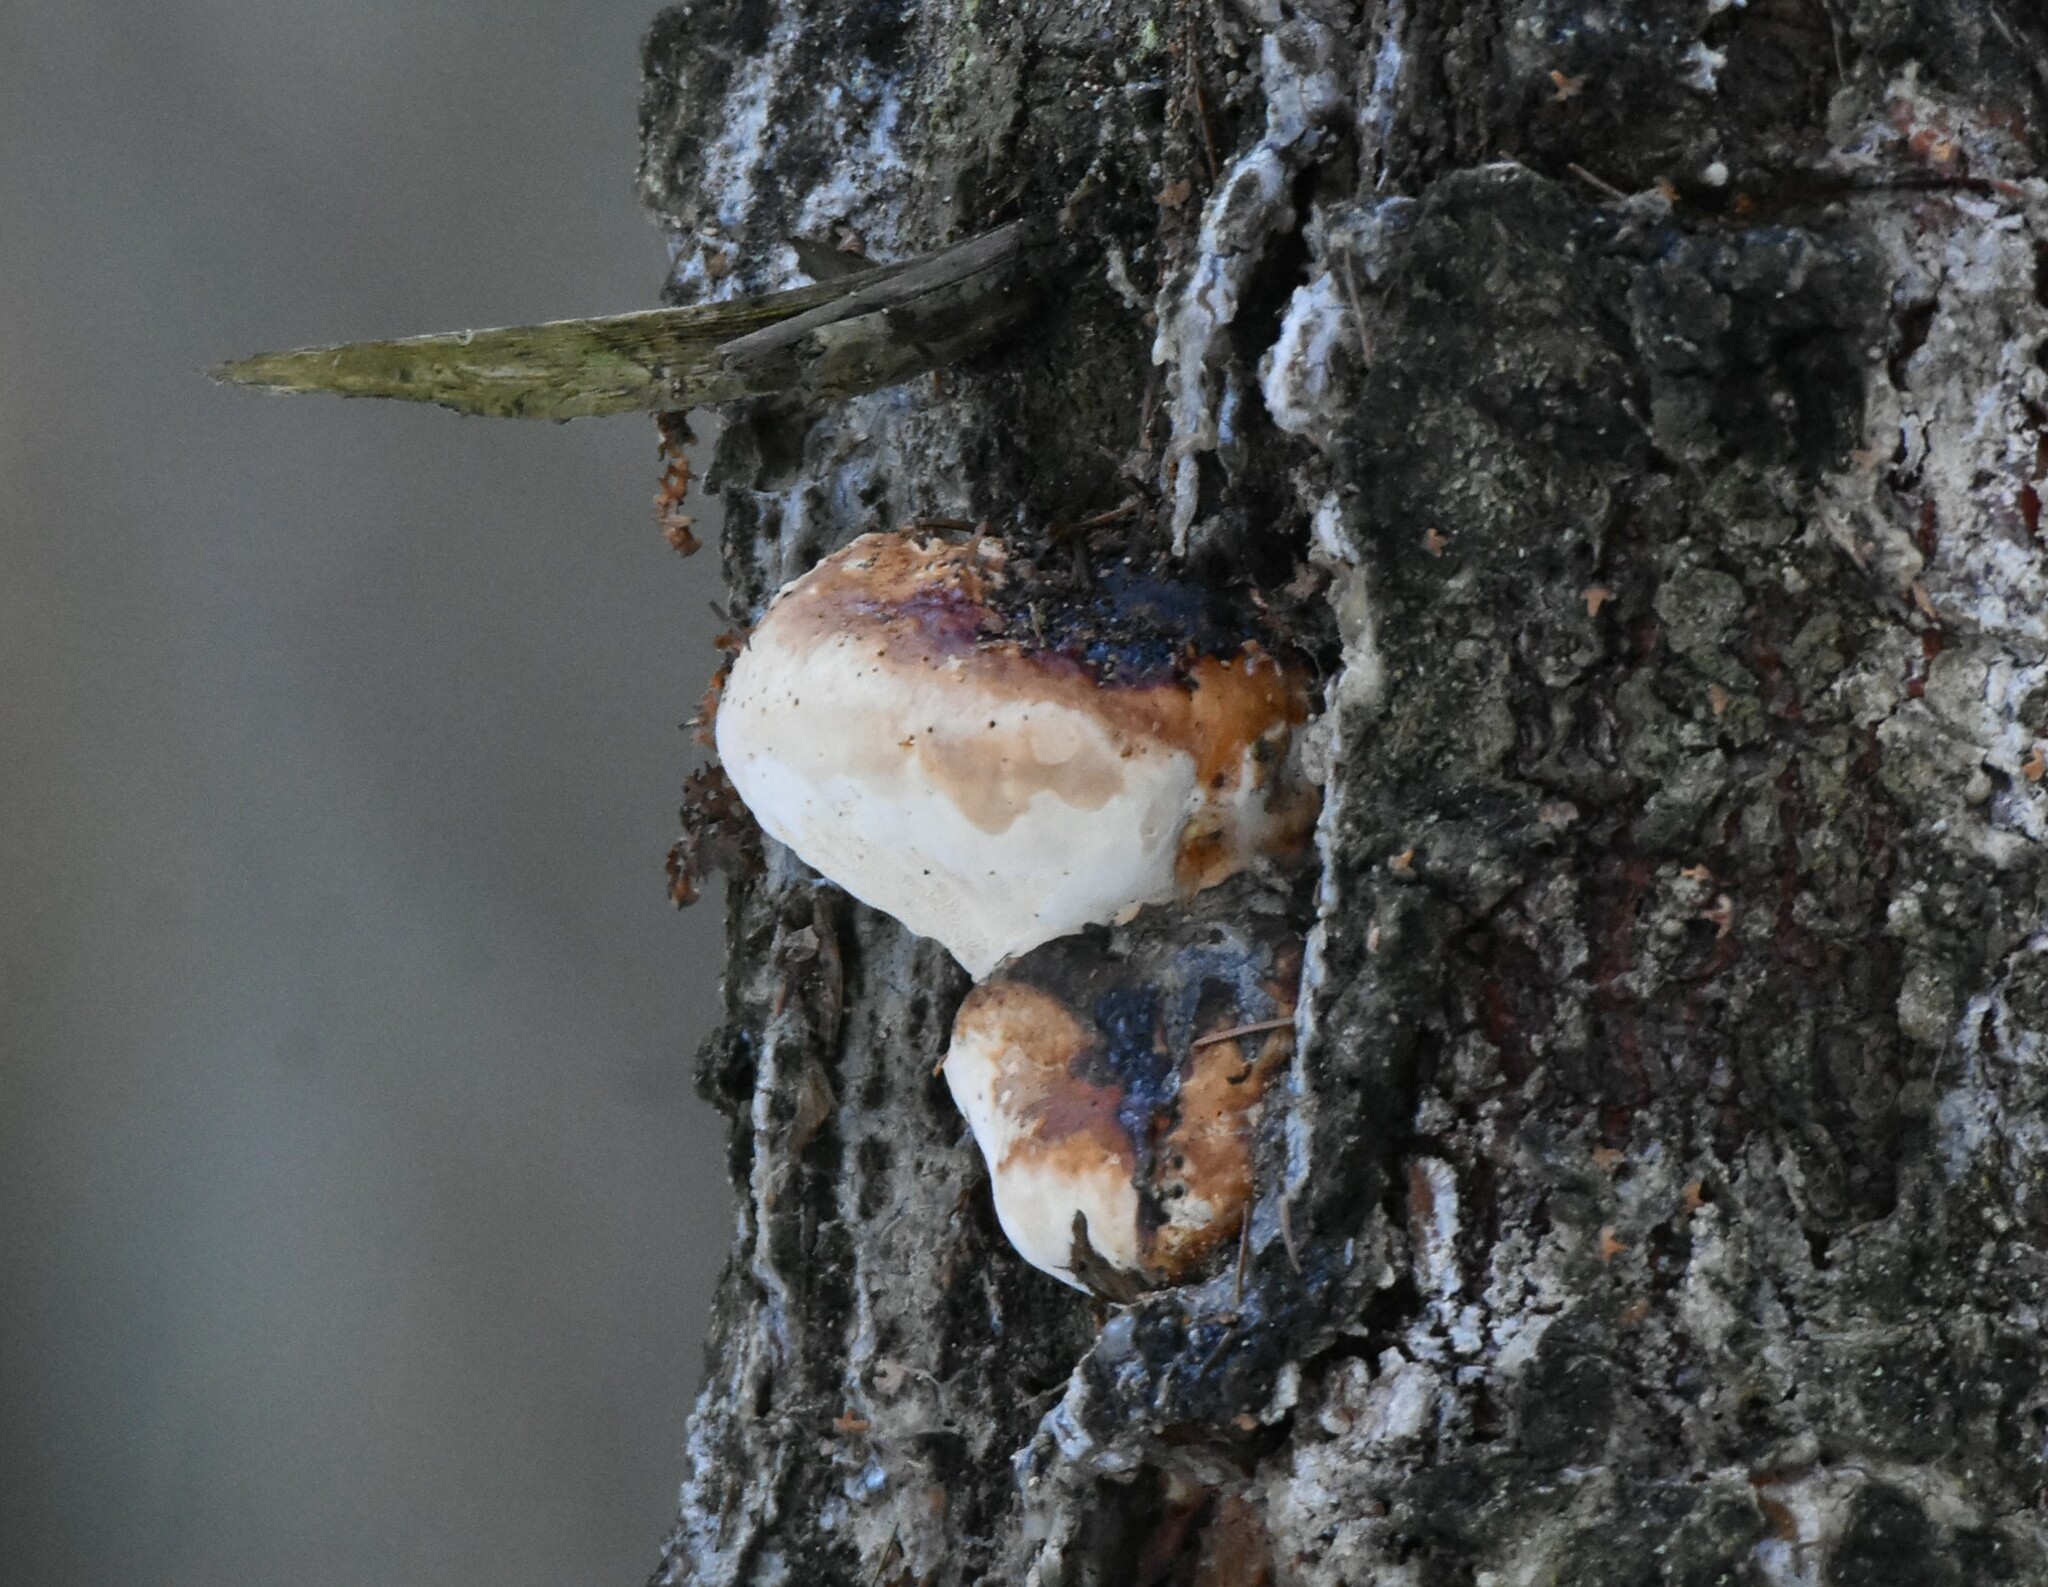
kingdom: Fungi
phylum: Basidiomycota
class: Agaricomycetes
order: Polyporales
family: Fomitopsidaceae
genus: Fomitopsis
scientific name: Fomitopsis pinicola
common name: Red-belted bracket
